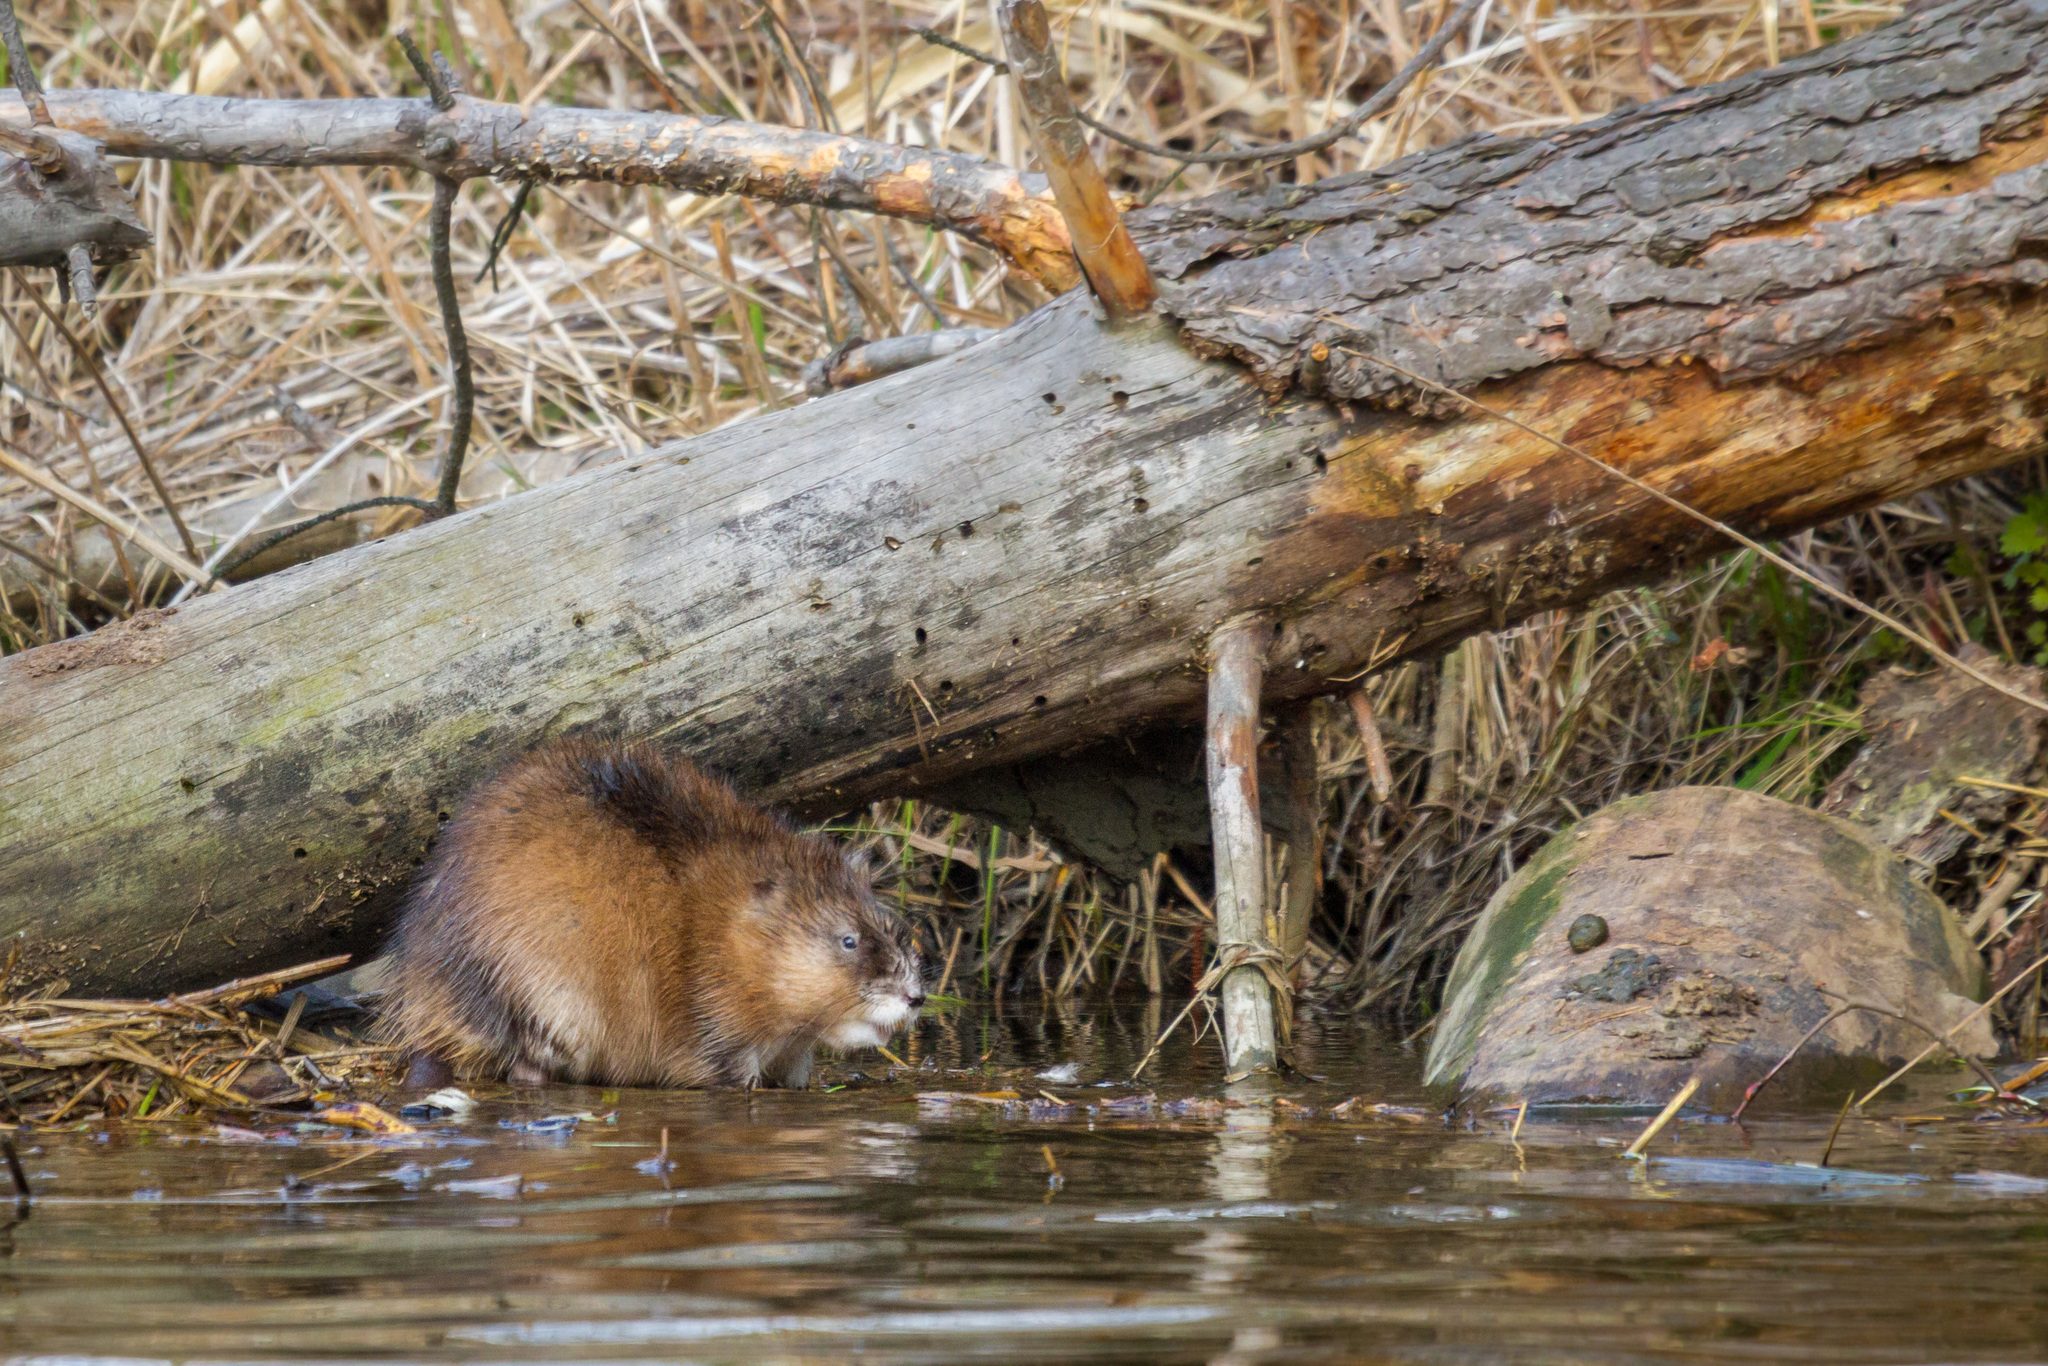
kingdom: Animalia
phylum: Chordata
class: Mammalia
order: Rodentia
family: Cricetidae
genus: Ondatra
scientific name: Ondatra zibethicus
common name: Muskrat
